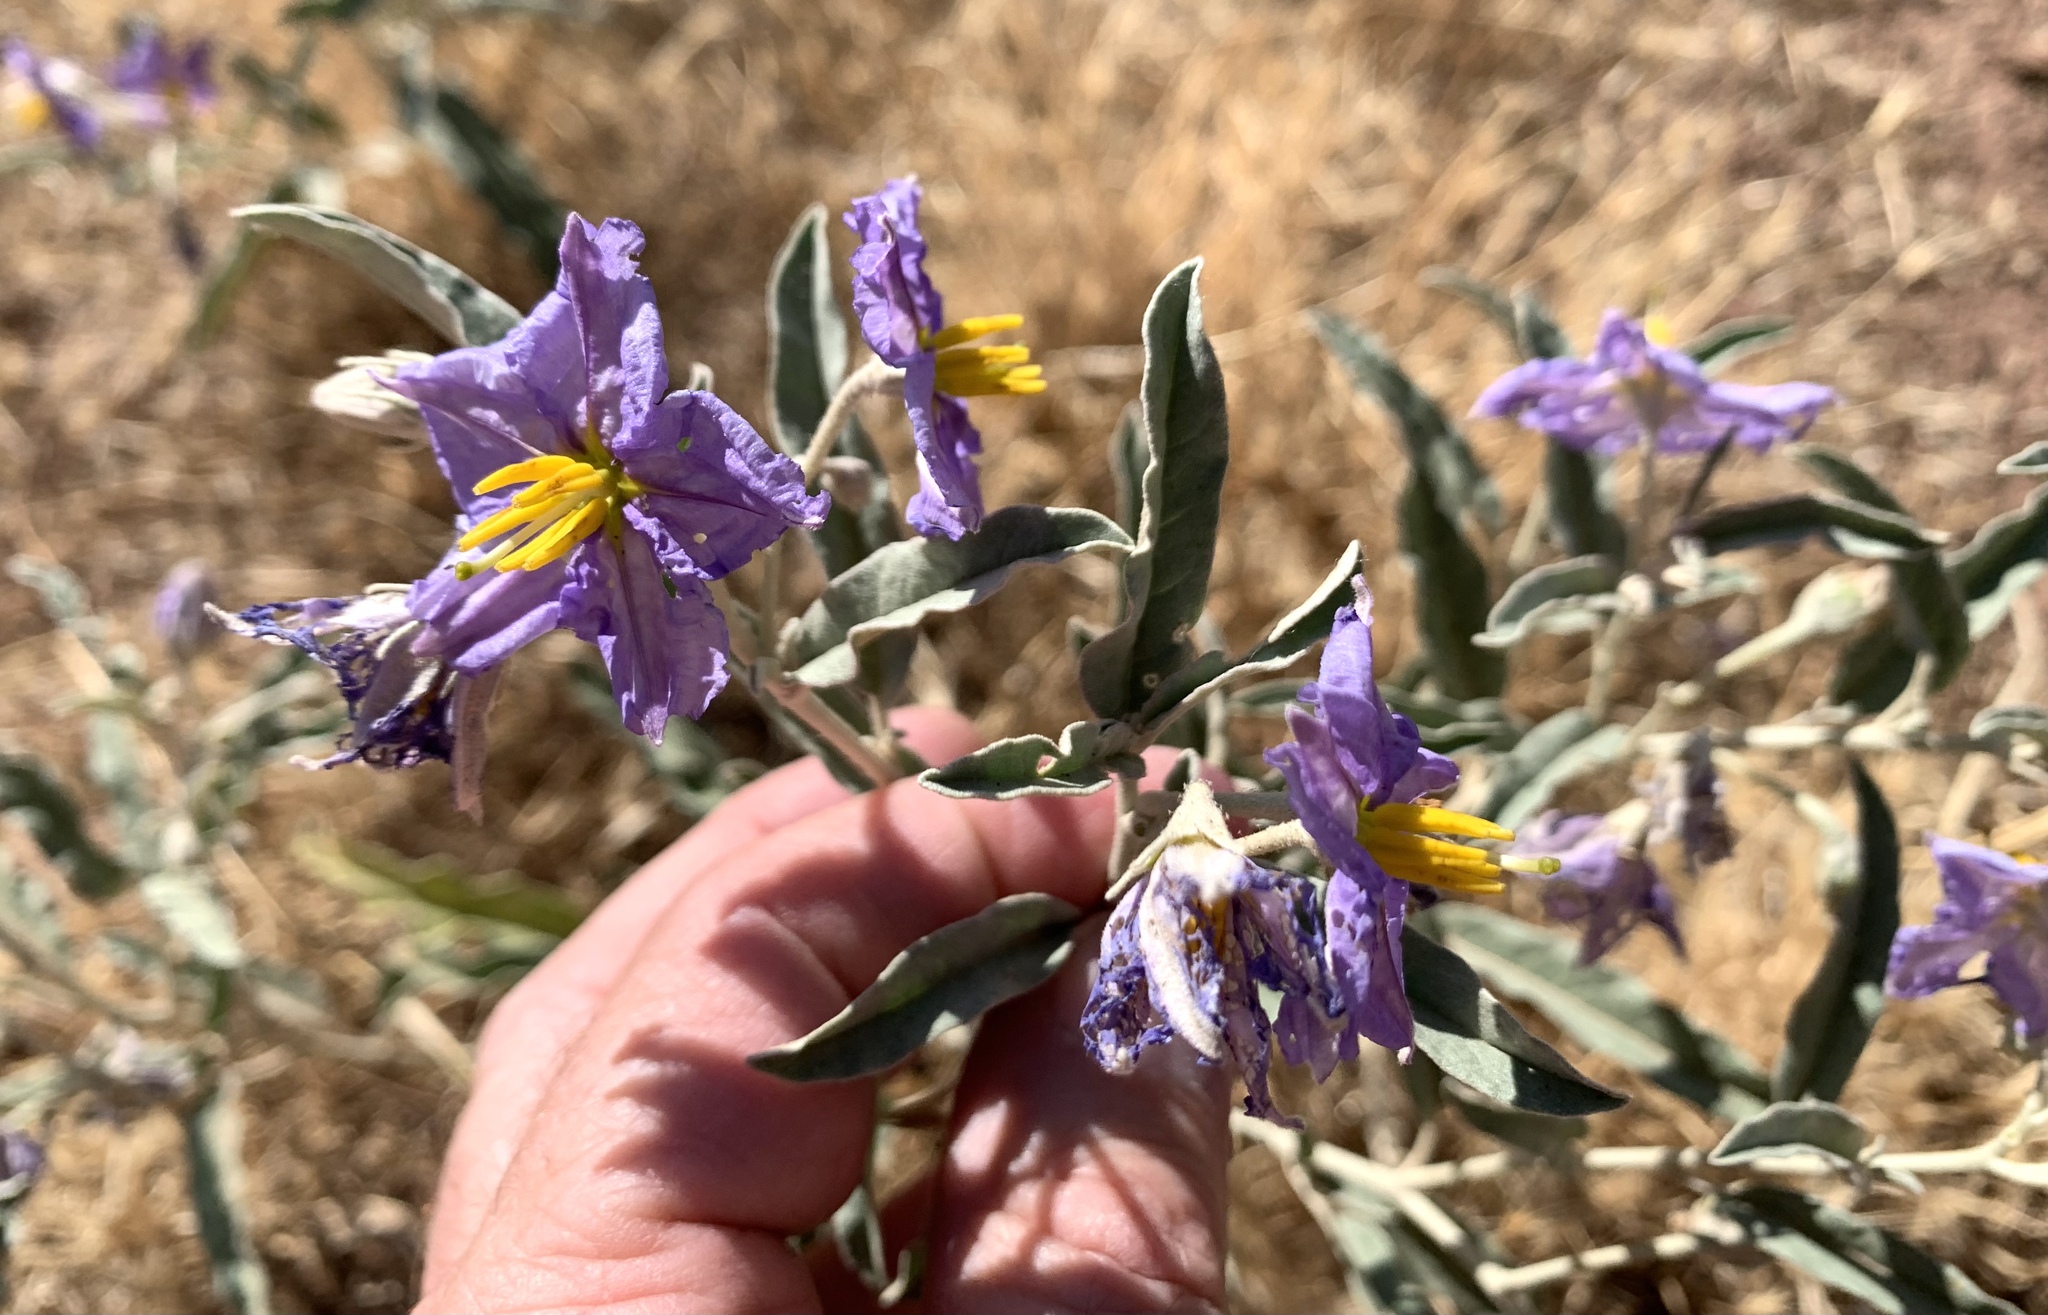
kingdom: Plantae
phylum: Tracheophyta
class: Magnoliopsida
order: Solanales
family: Solanaceae
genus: Solanum
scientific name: Solanum elaeagnifolium
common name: Silverleaf nightshade
